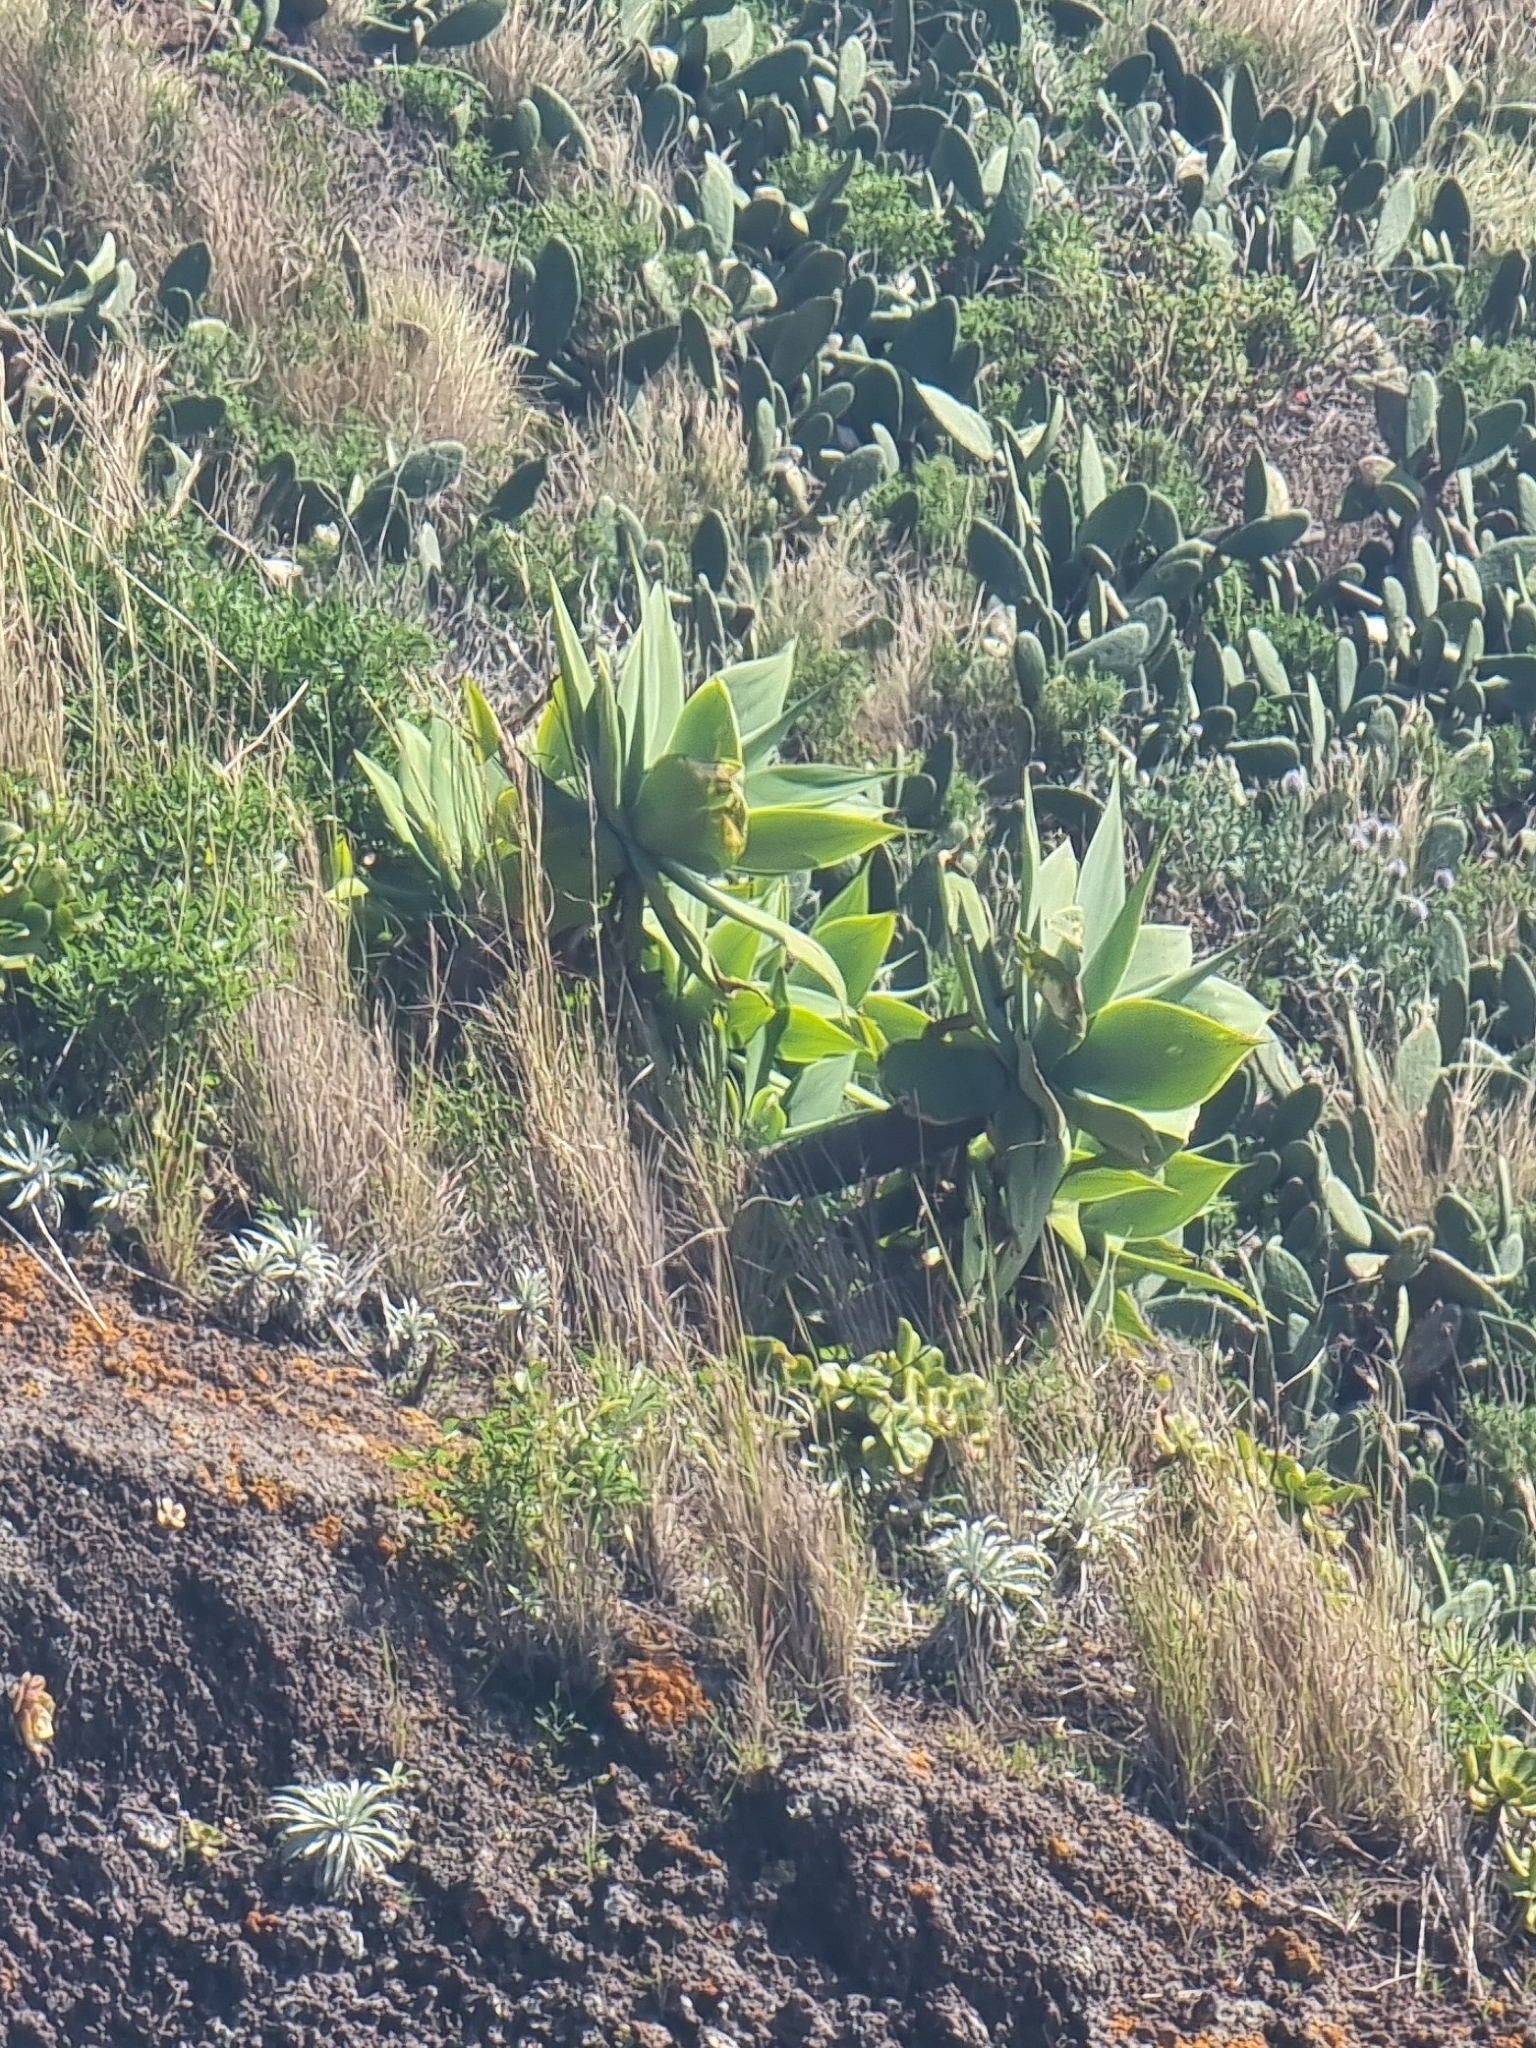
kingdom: Plantae
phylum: Tracheophyta
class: Liliopsida
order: Asparagales
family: Asparagaceae
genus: Agave
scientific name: Agave attenuata
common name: Fox tail agave
